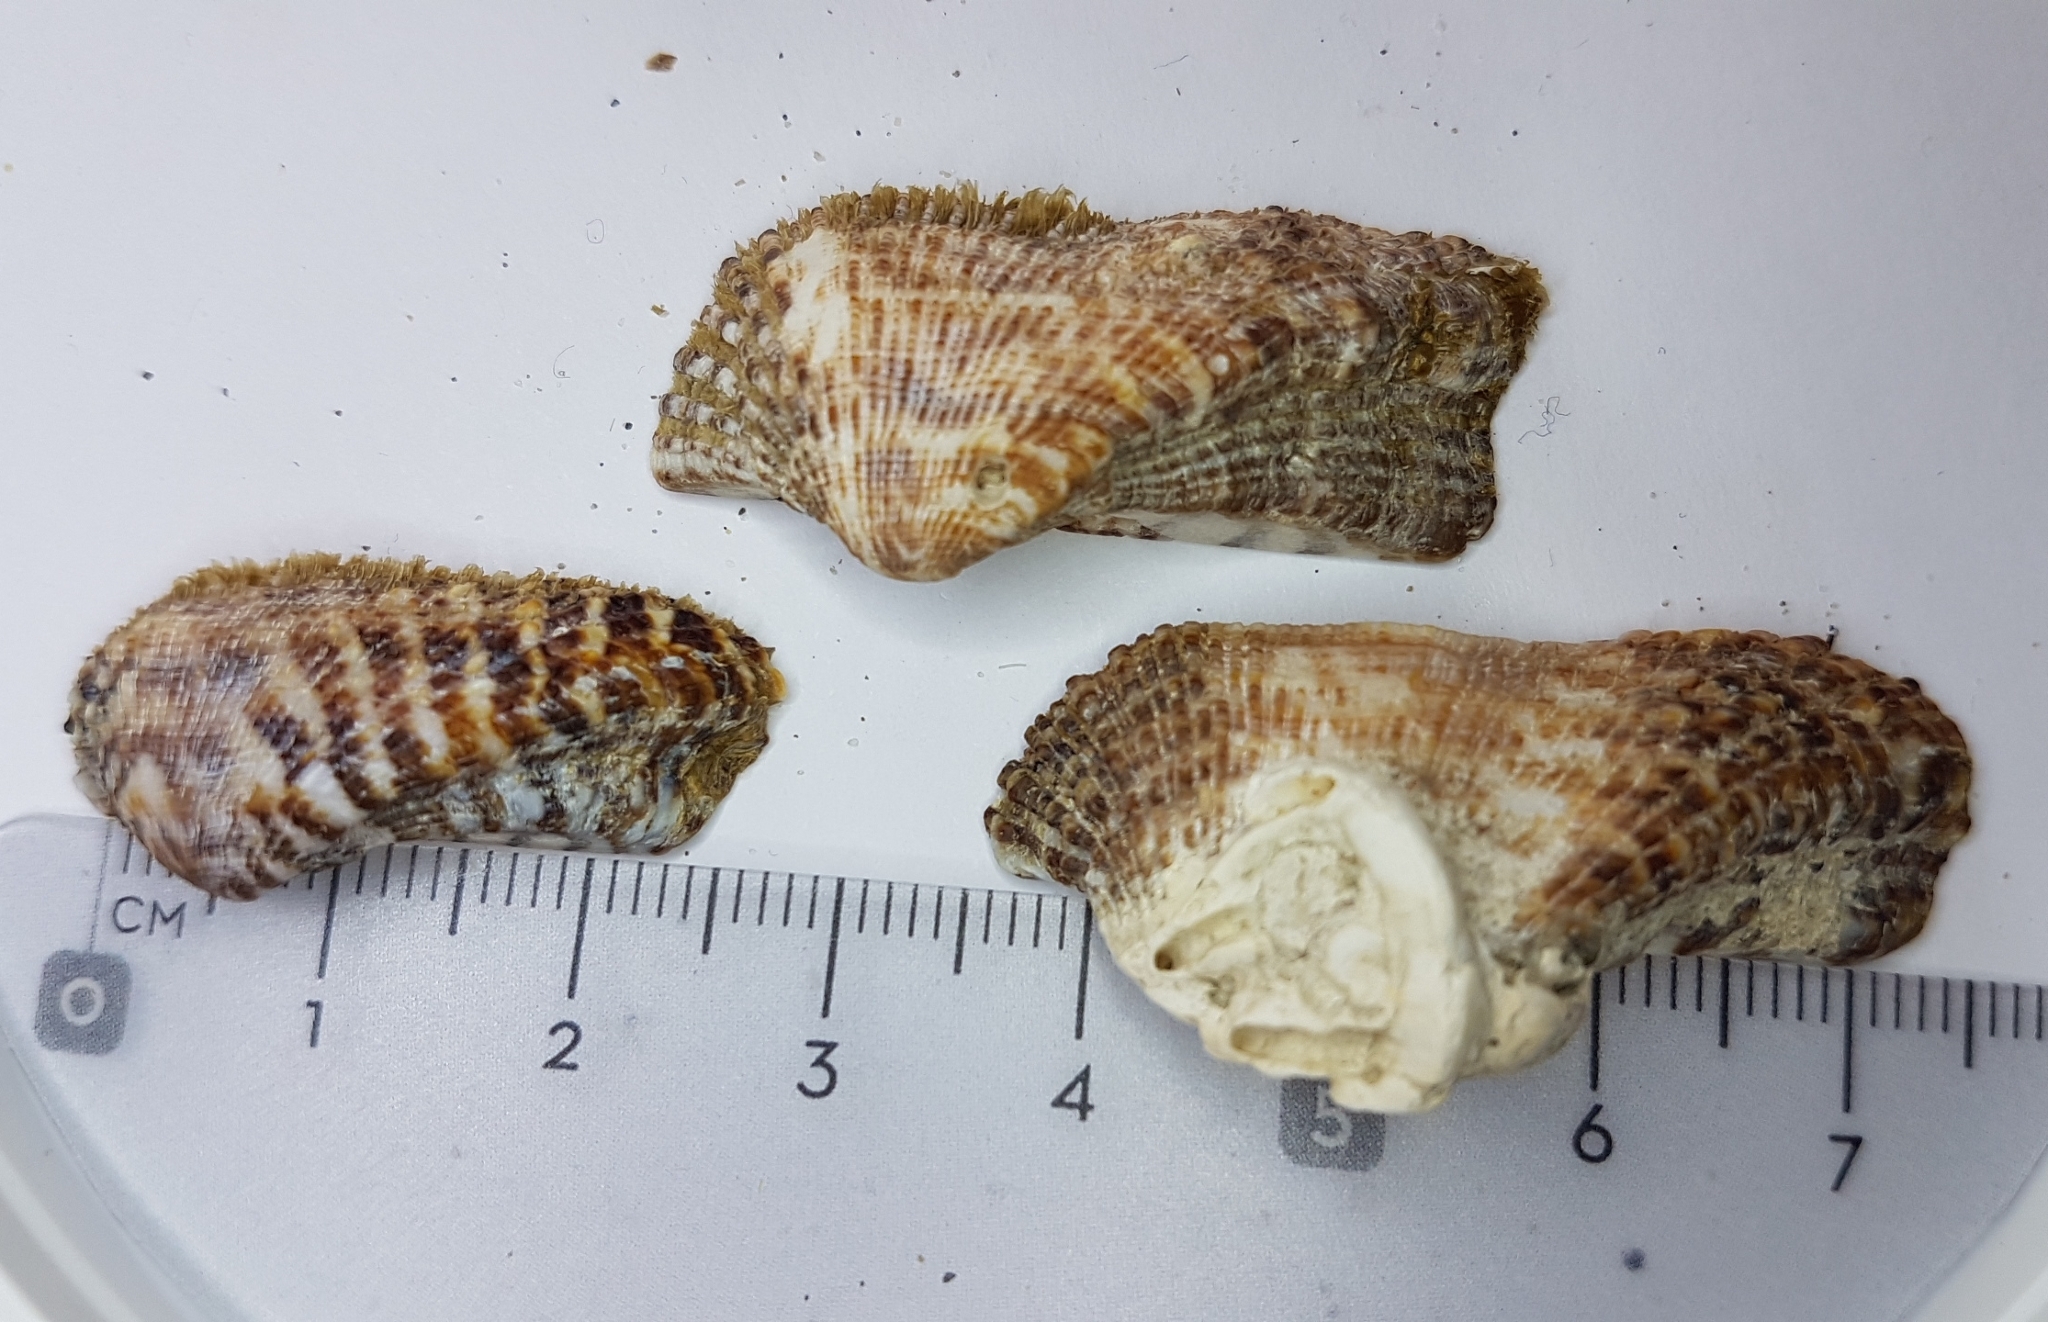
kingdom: Animalia
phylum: Mollusca
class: Bivalvia
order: Arcida
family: Arcidae
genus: Arca
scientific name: Arca noae
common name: Noah's arch
